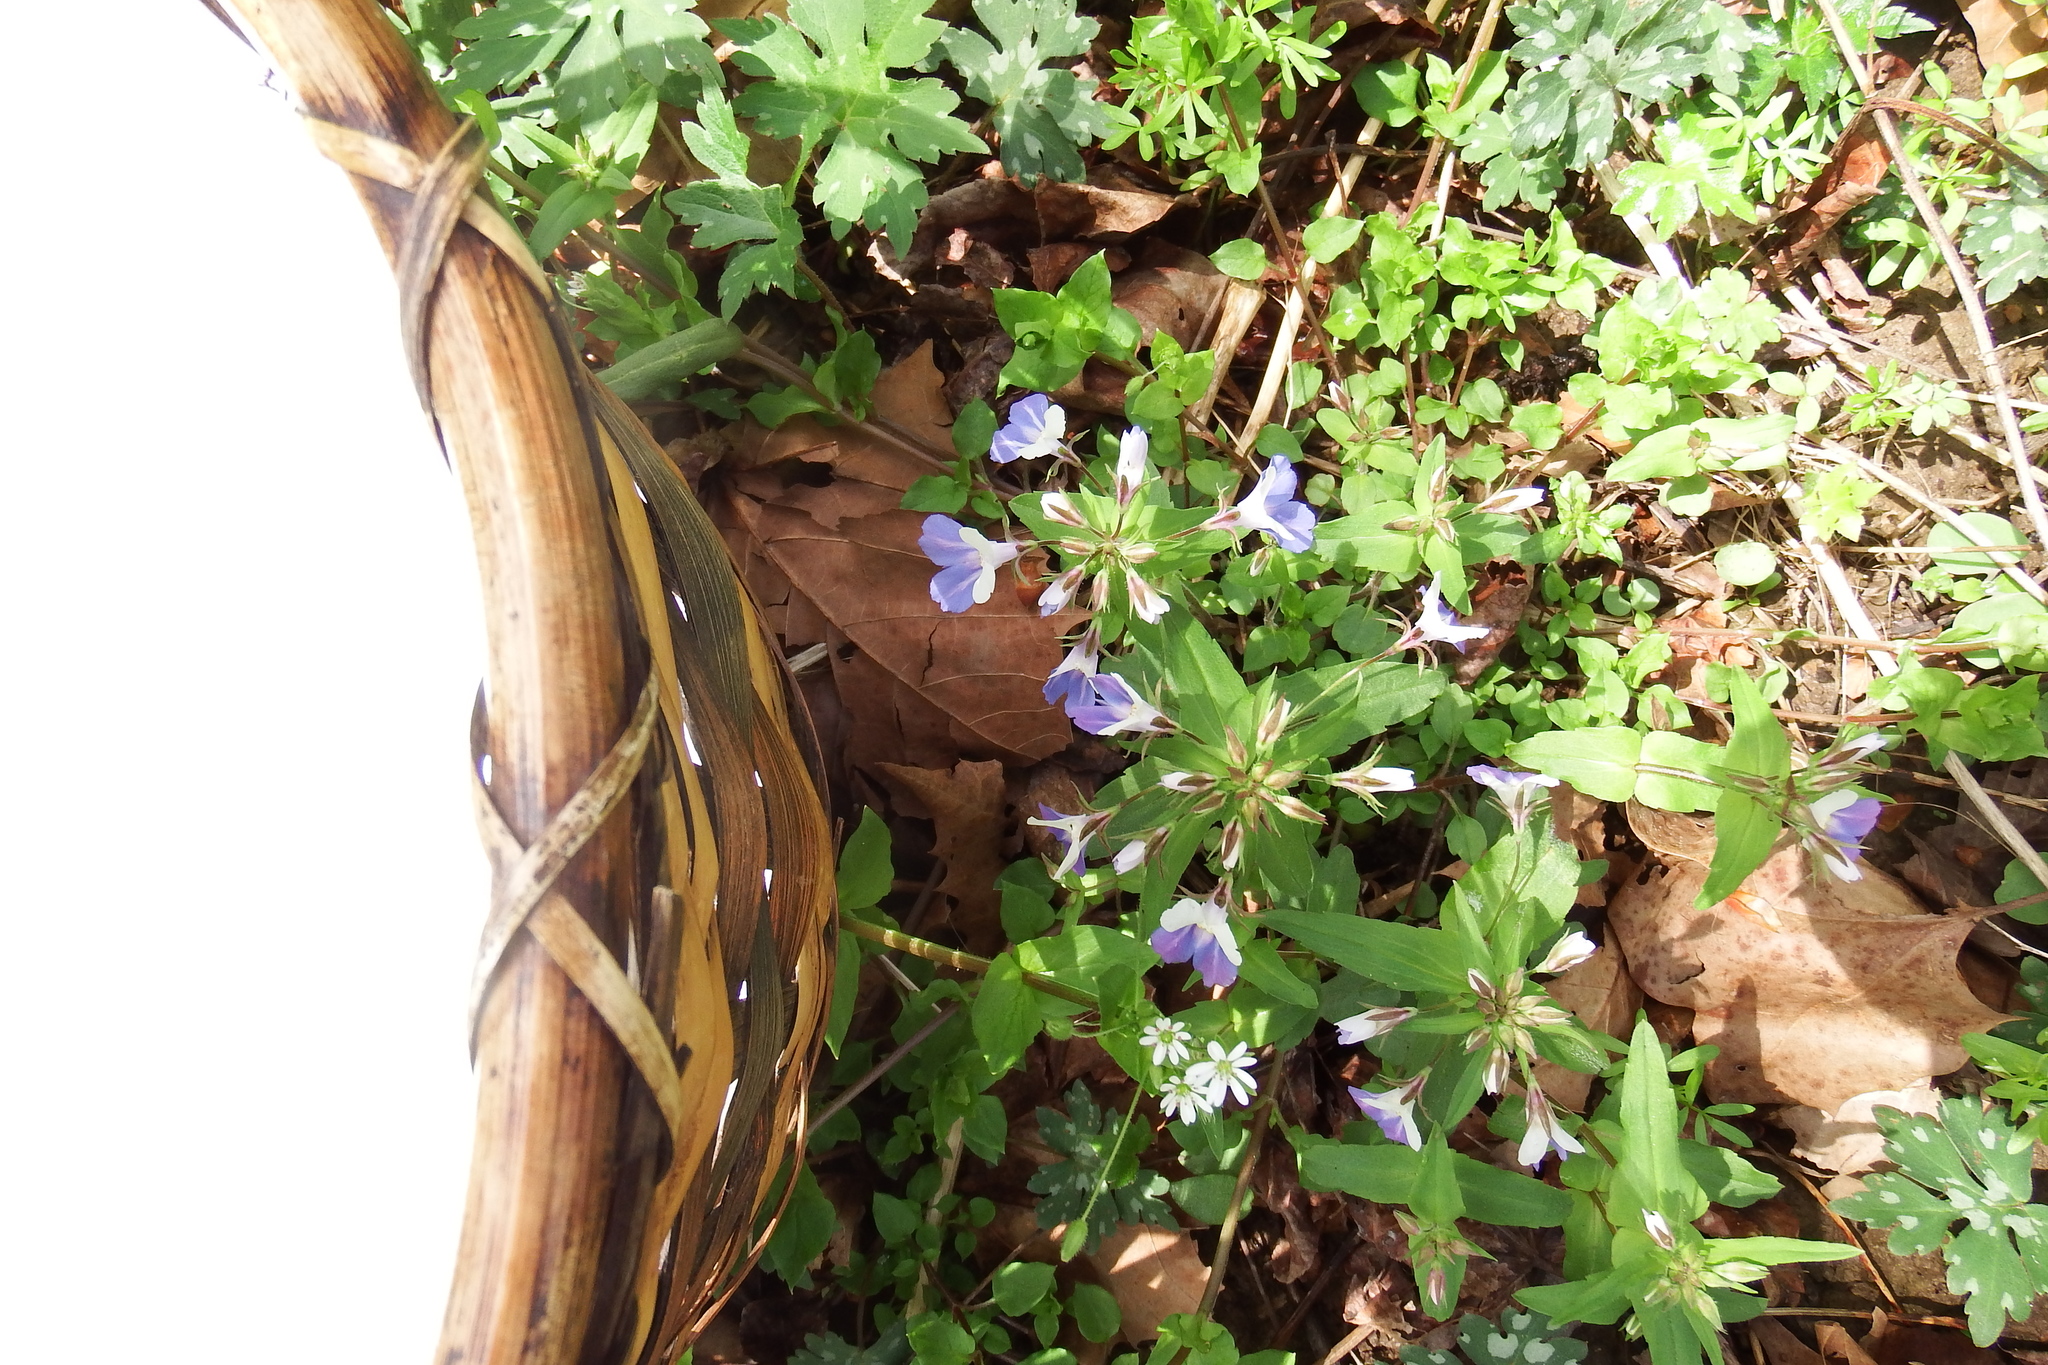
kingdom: Plantae
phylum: Tracheophyta
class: Magnoliopsida
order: Lamiales
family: Plantaginaceae
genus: Collinsia
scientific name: Collinsia verna
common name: Broad-leaved collinsia
